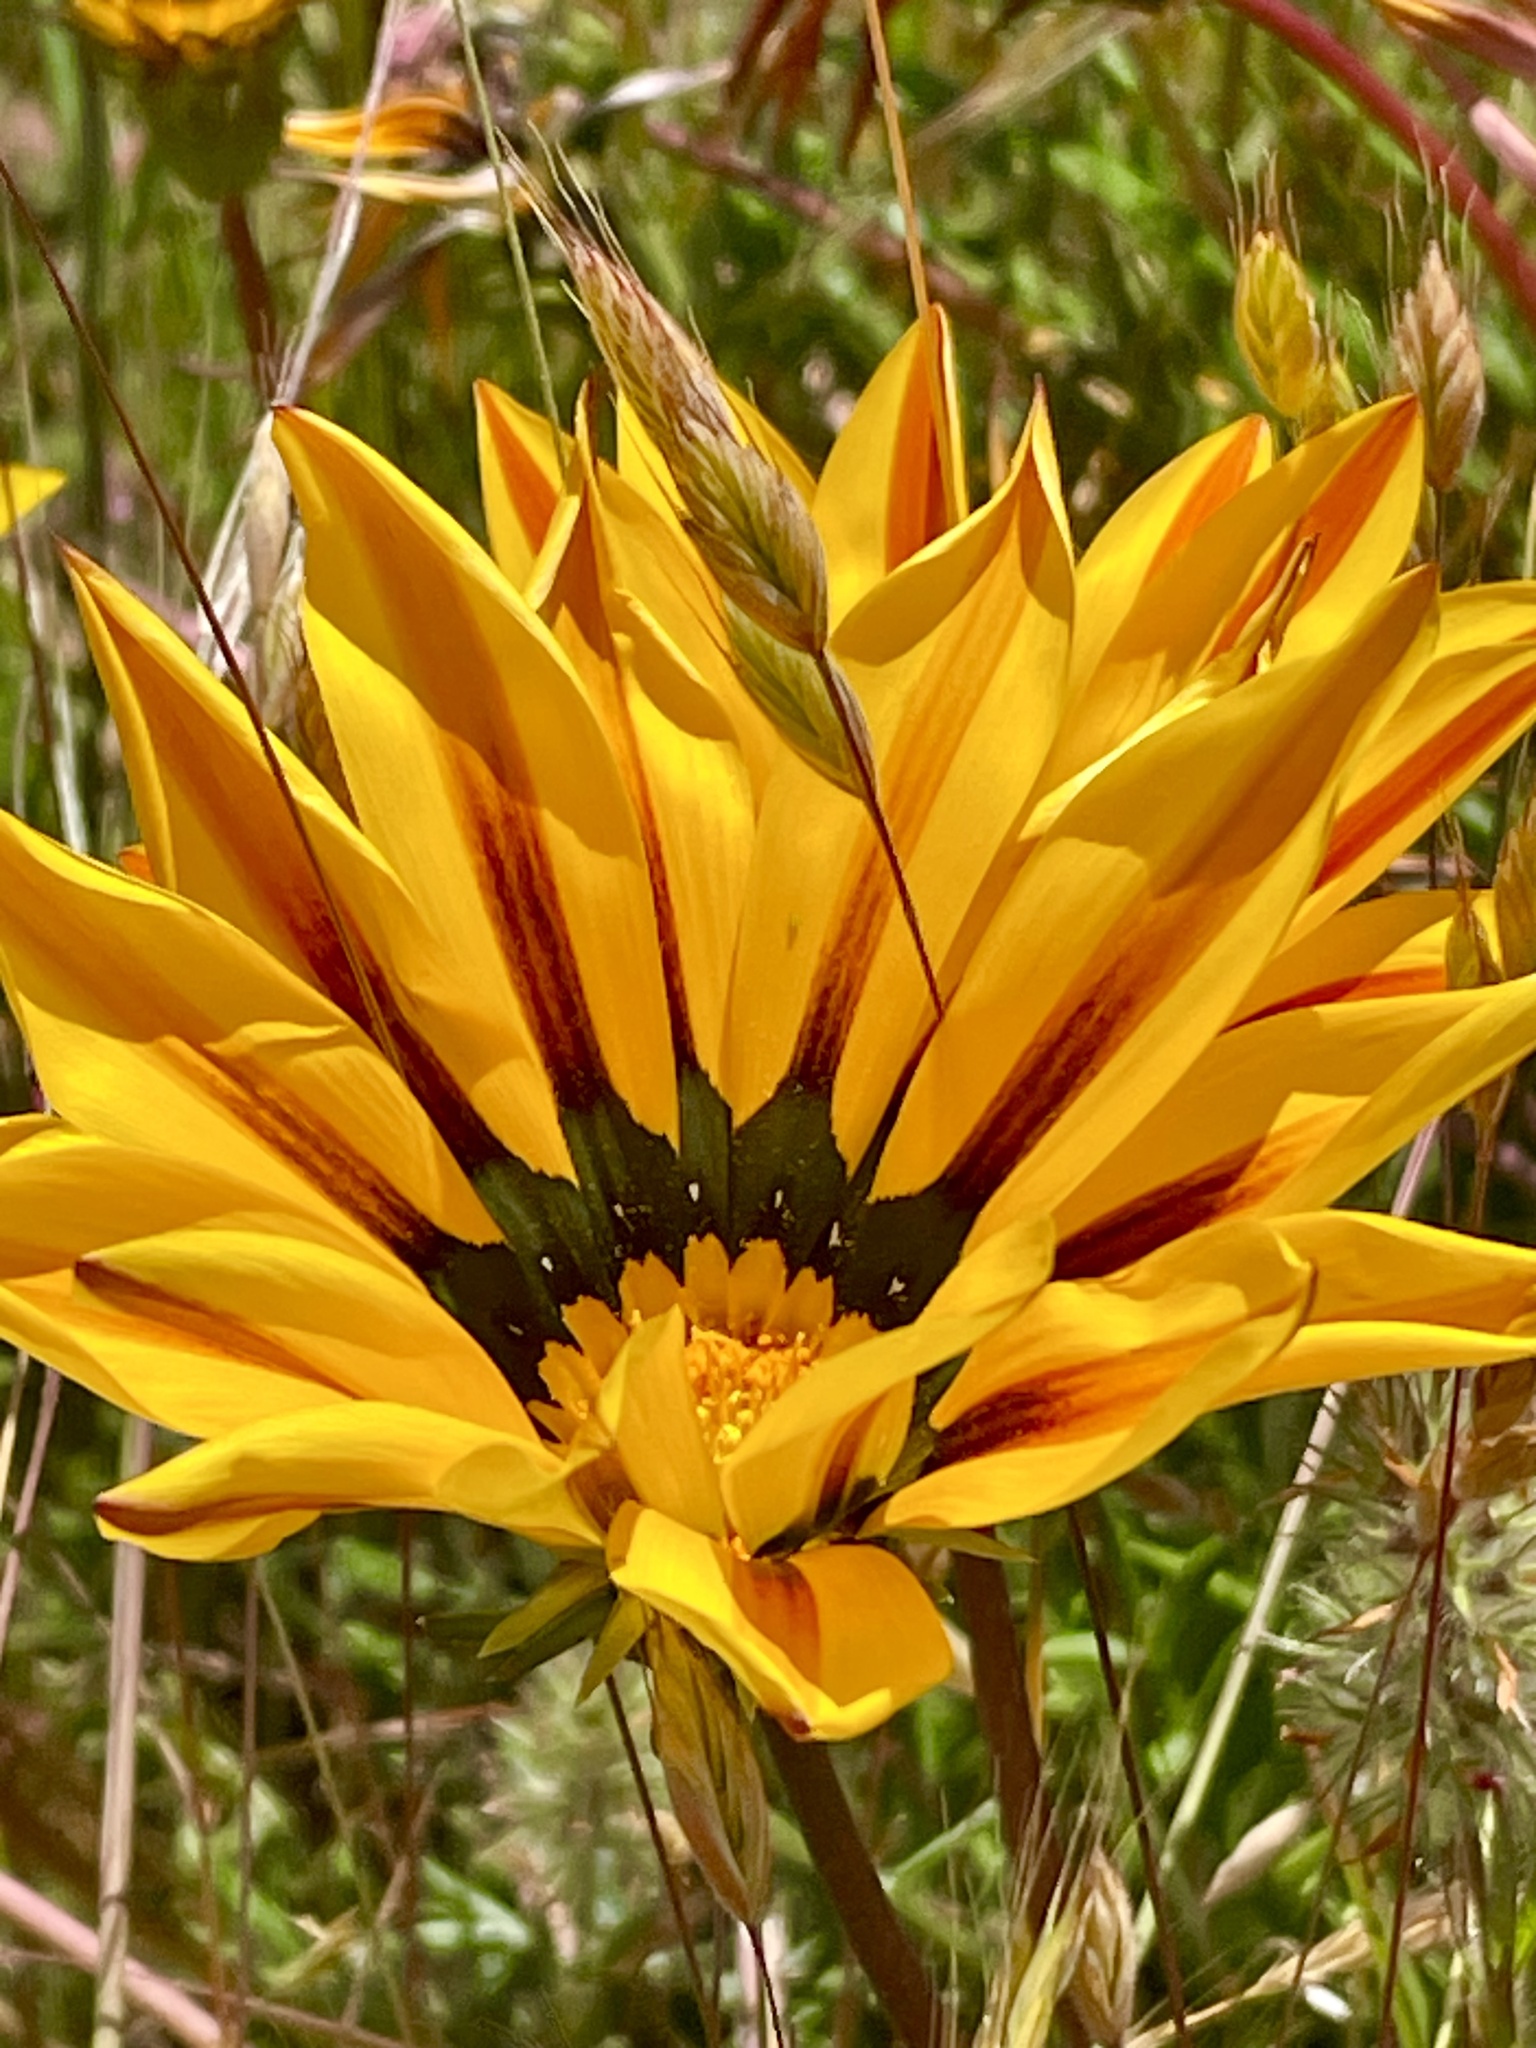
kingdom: Plantae
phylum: Tracheophyta
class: Magnoliopsida
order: Asterales
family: Asteraceae
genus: Gazania
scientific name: Gazania splendens
